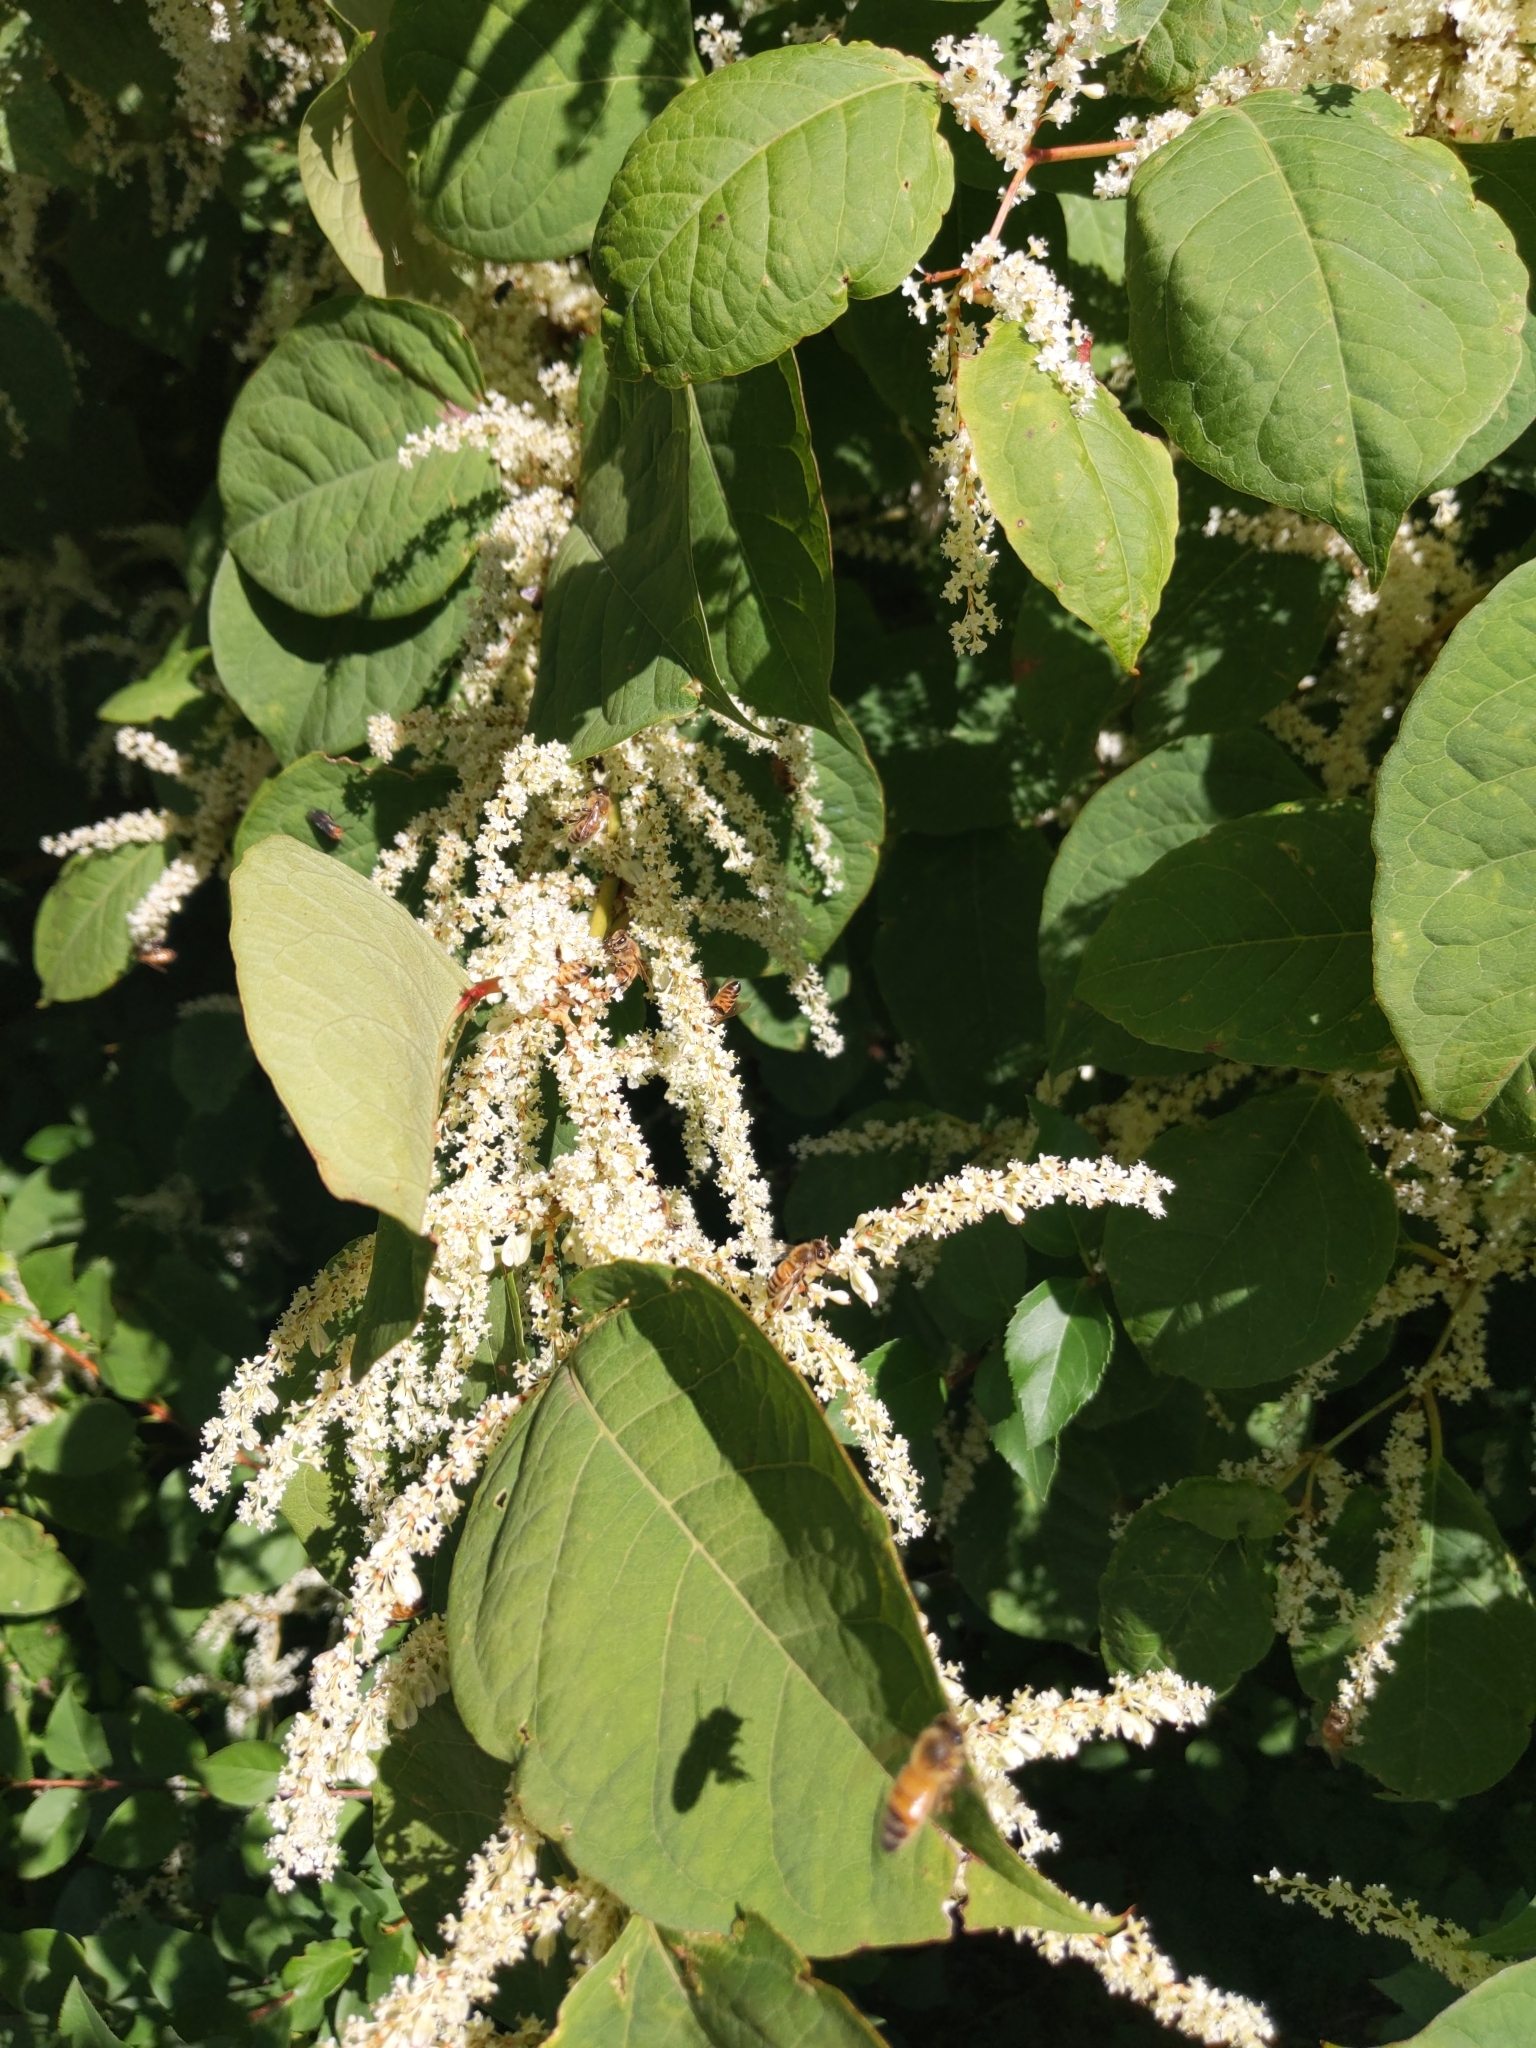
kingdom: Plantae
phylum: Tracheophyta
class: Magnoliopsida
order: Caryophyllales
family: Polygonaceae
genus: Reynoutria
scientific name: Reynoutria japonica
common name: Japanese knotweed
